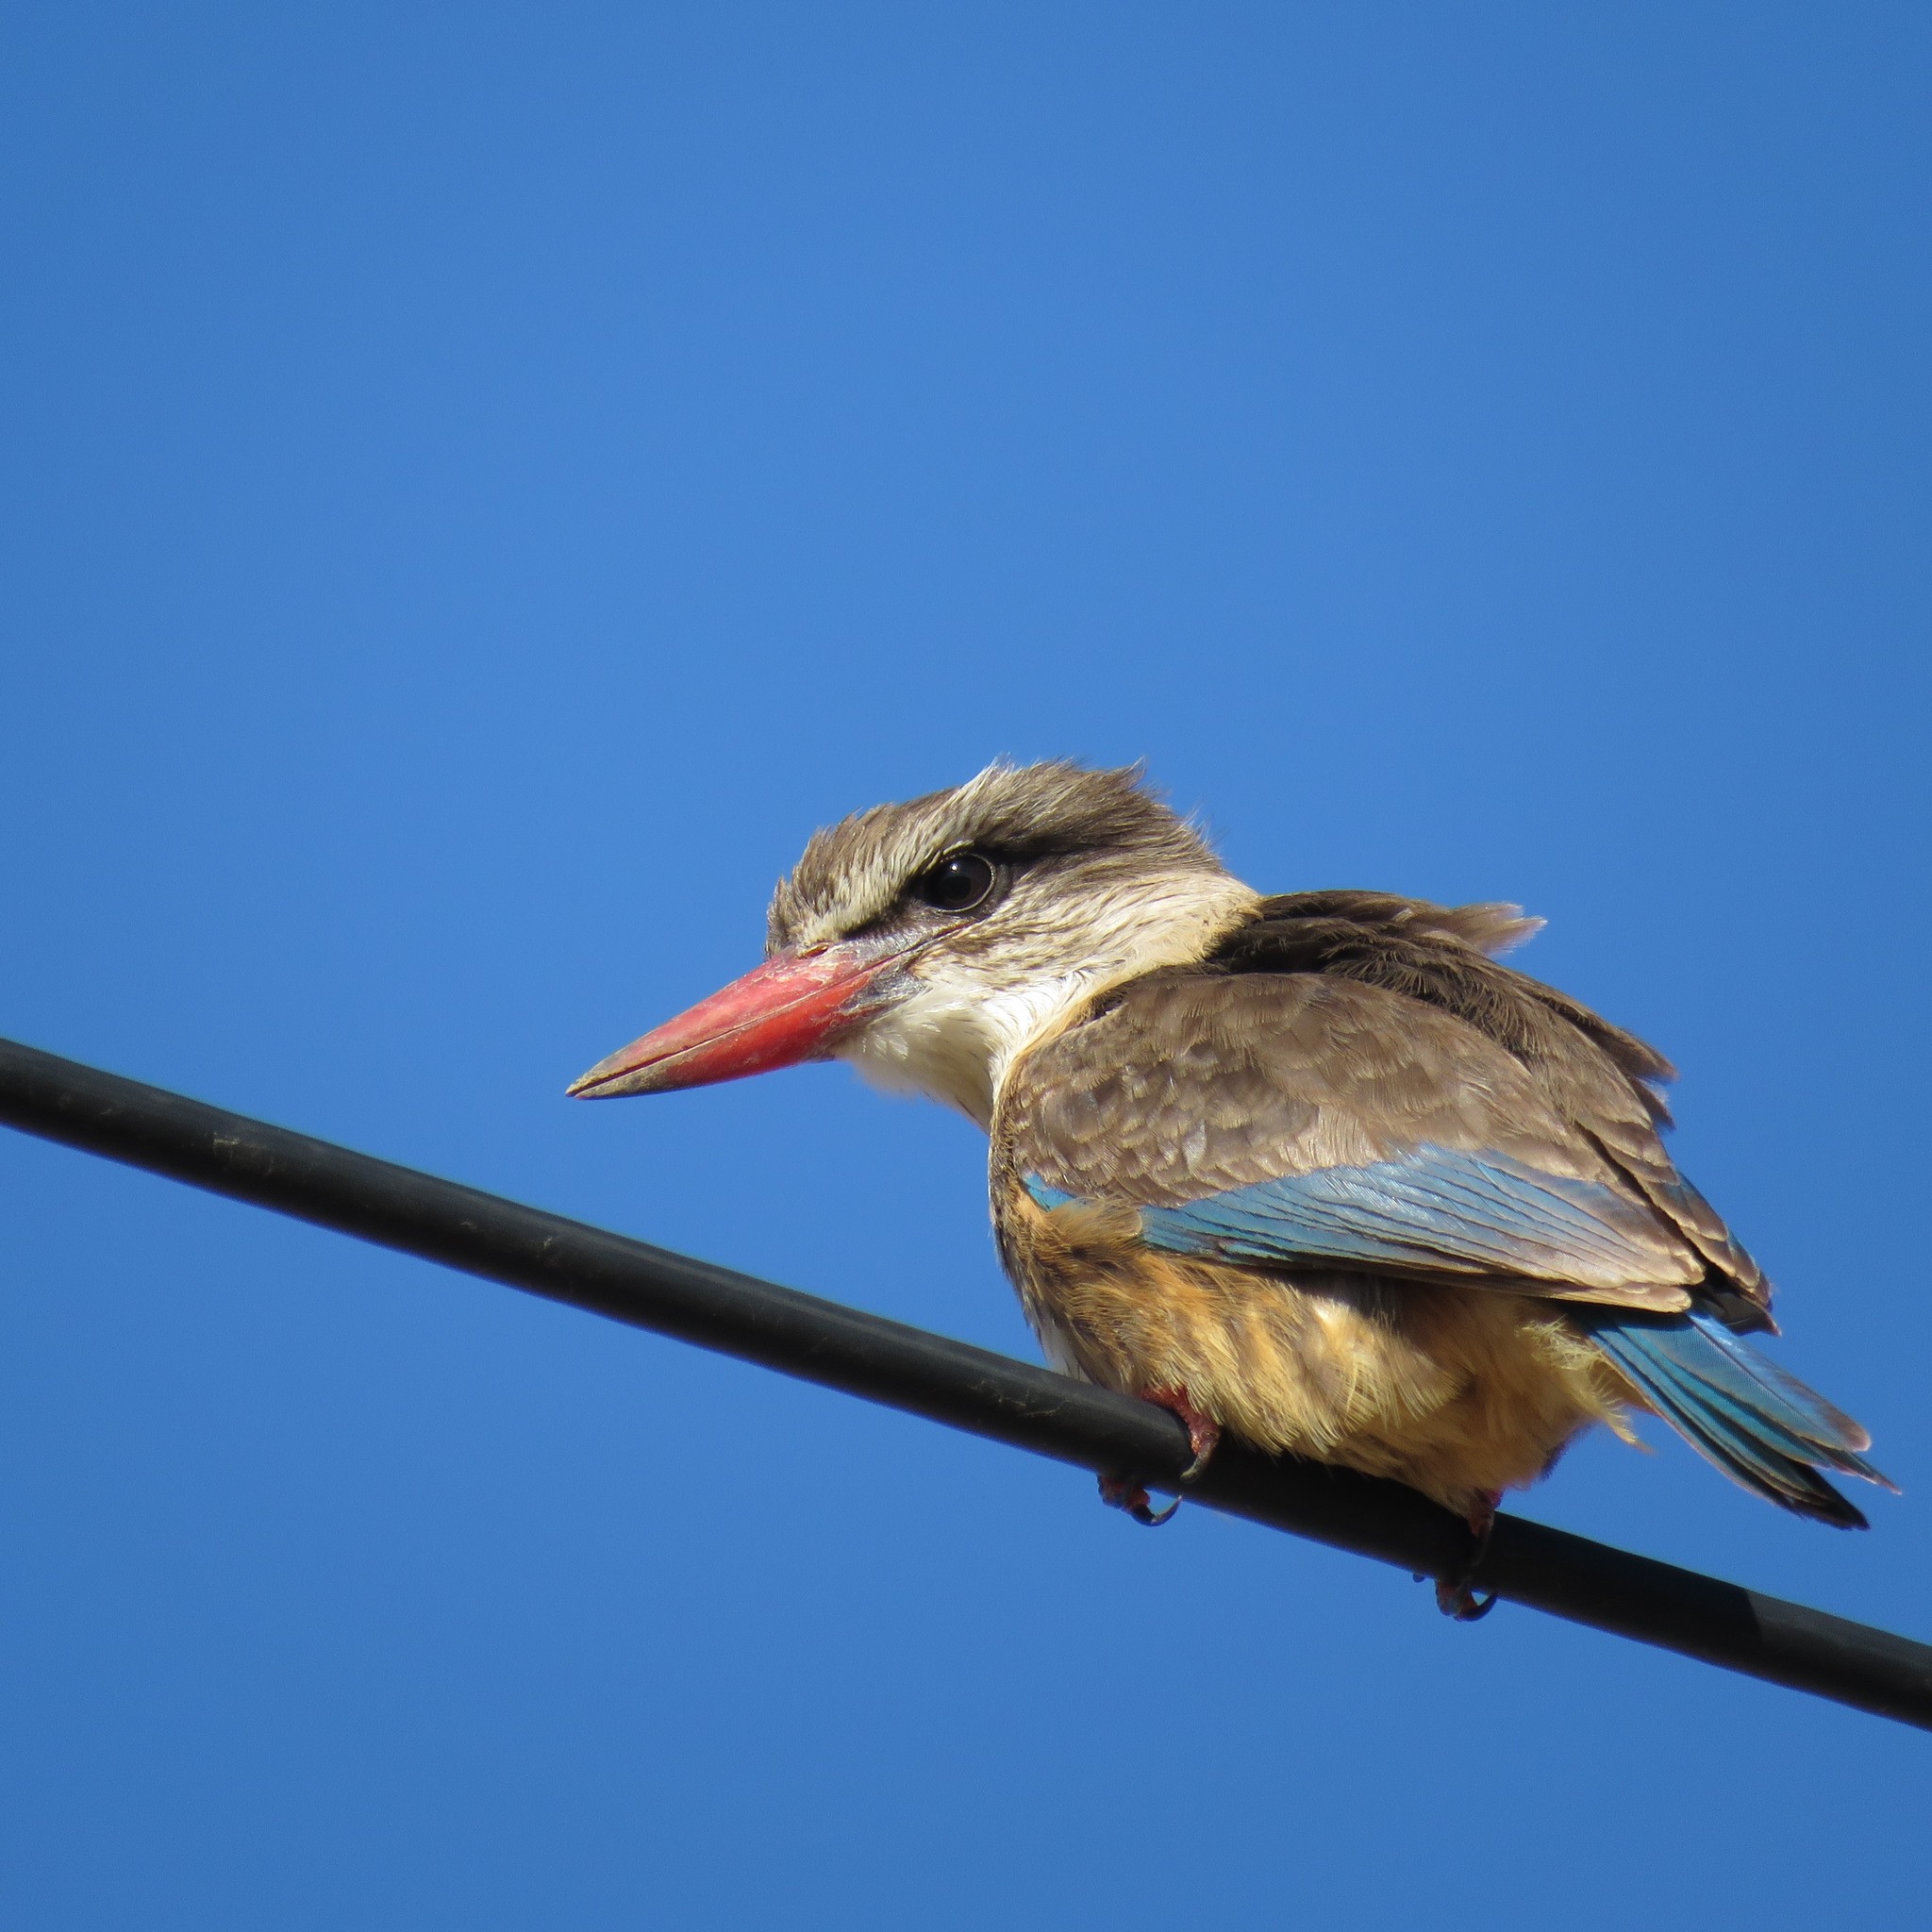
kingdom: Animalia
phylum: Chordata
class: Aves
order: Coraciiformes
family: Alcedinidae
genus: Halcyon
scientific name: Halcyon albiventris
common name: Brown-hooded kingfisher
